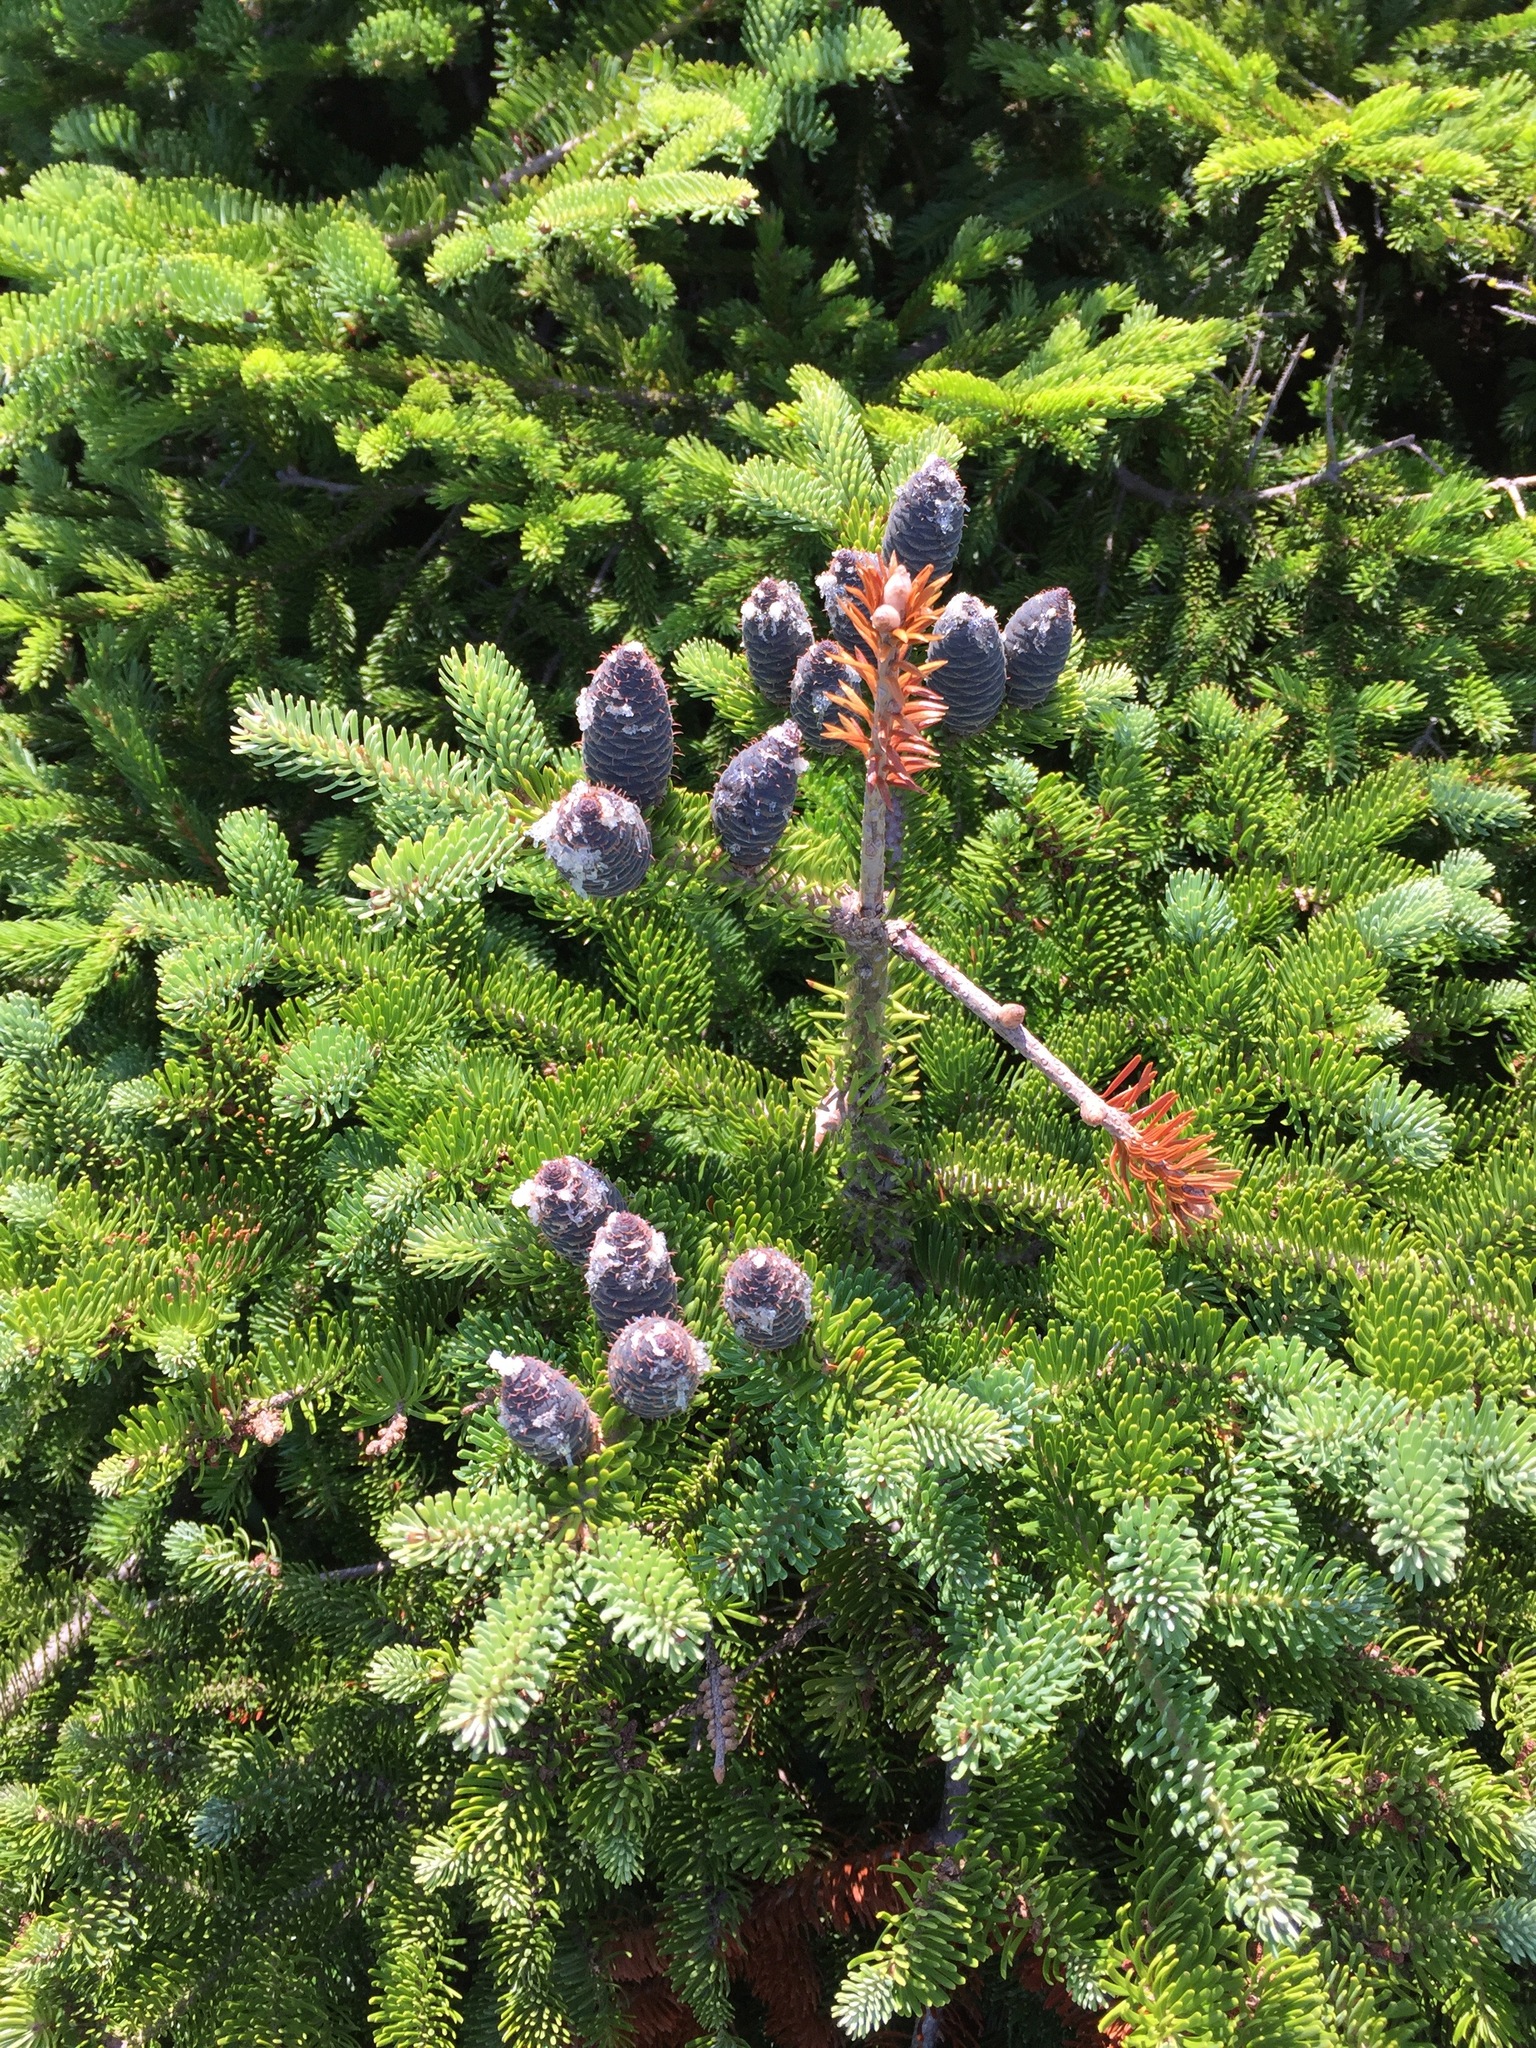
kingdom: Plantae
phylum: Tracheophyta
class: Pinopsida
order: Pinales
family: Pinaceae
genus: Abies
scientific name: Abies balsamea
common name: Balsam fir
